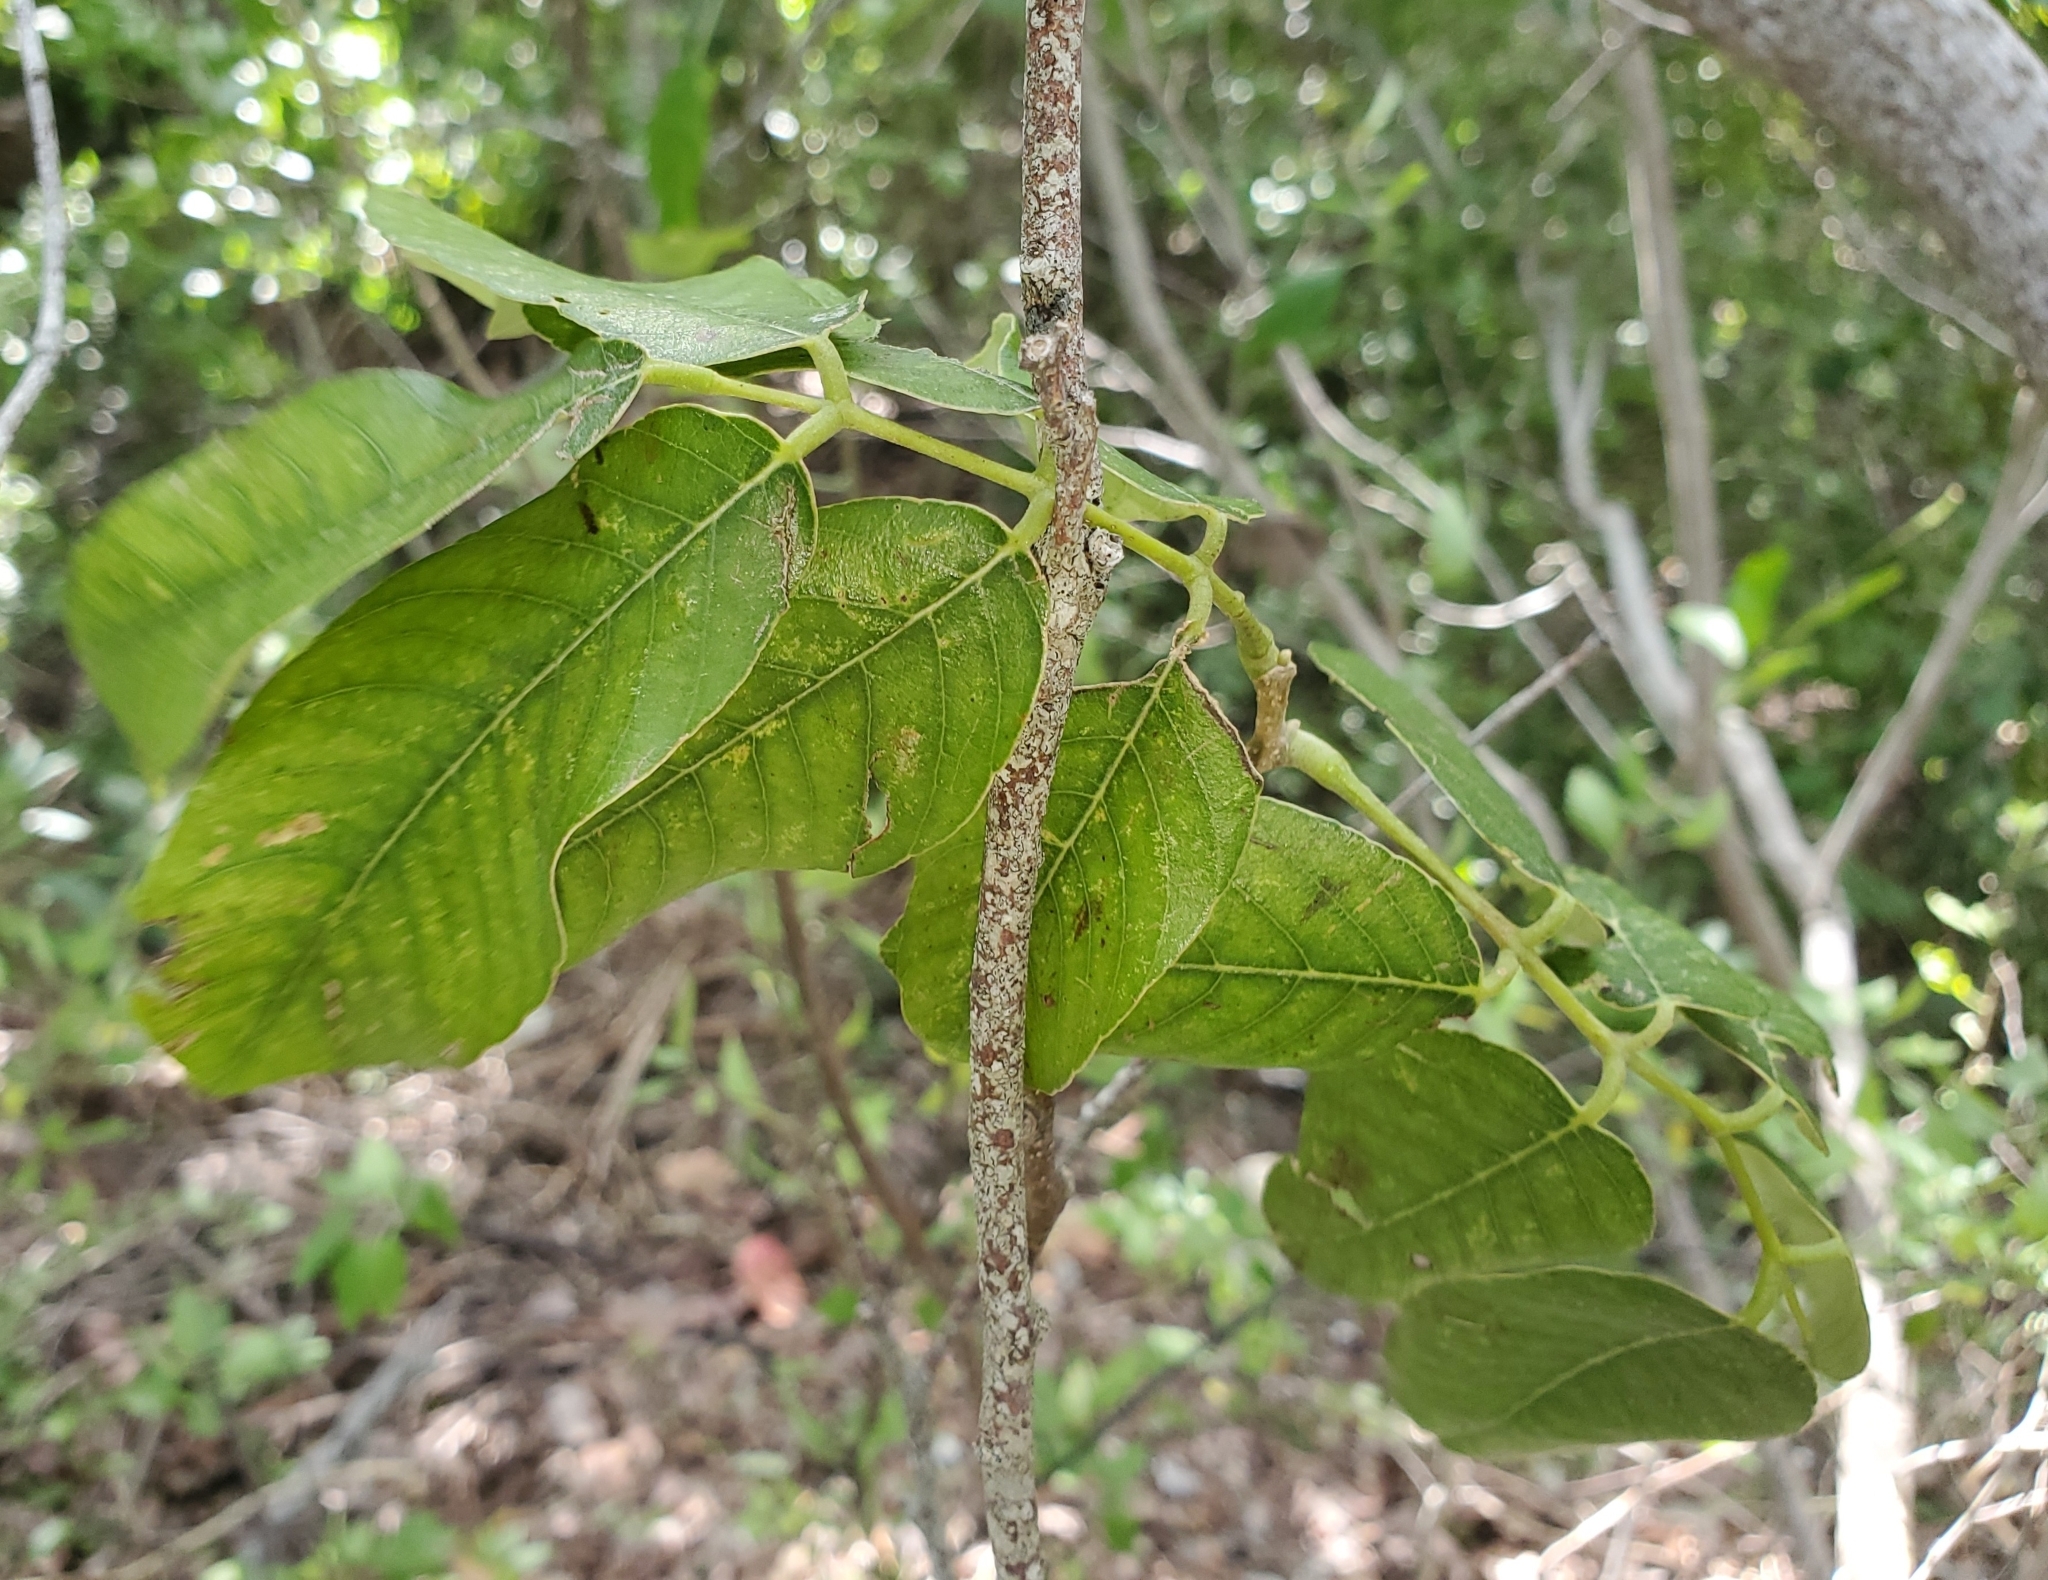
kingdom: Plantae
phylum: Tracheophyta
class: Magnoliopsida
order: Fabales
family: Fabaceae
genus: Piscidia
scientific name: Piscidia piscipula
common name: Florida fishpoison tree
